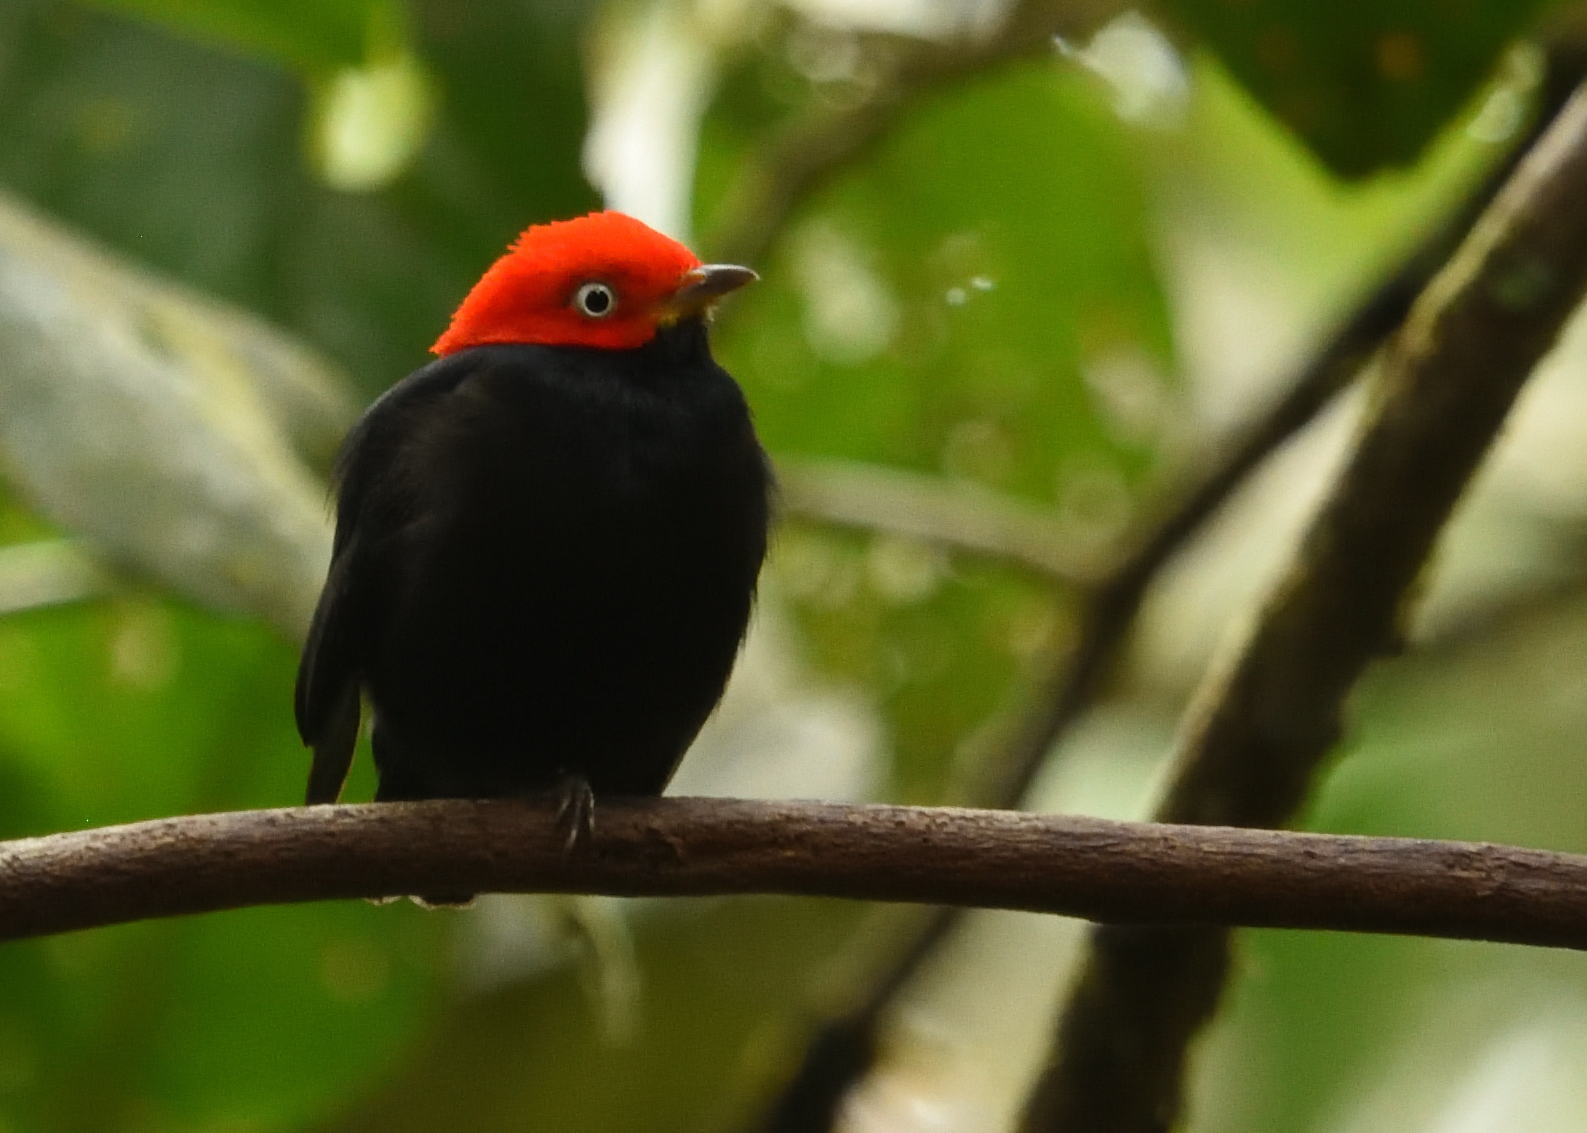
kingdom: Animalia
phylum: Chordata
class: Aves
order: Passeriformes
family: Pipridae
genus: Pipra
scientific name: Pipra mentalis
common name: Red-capped manakin
